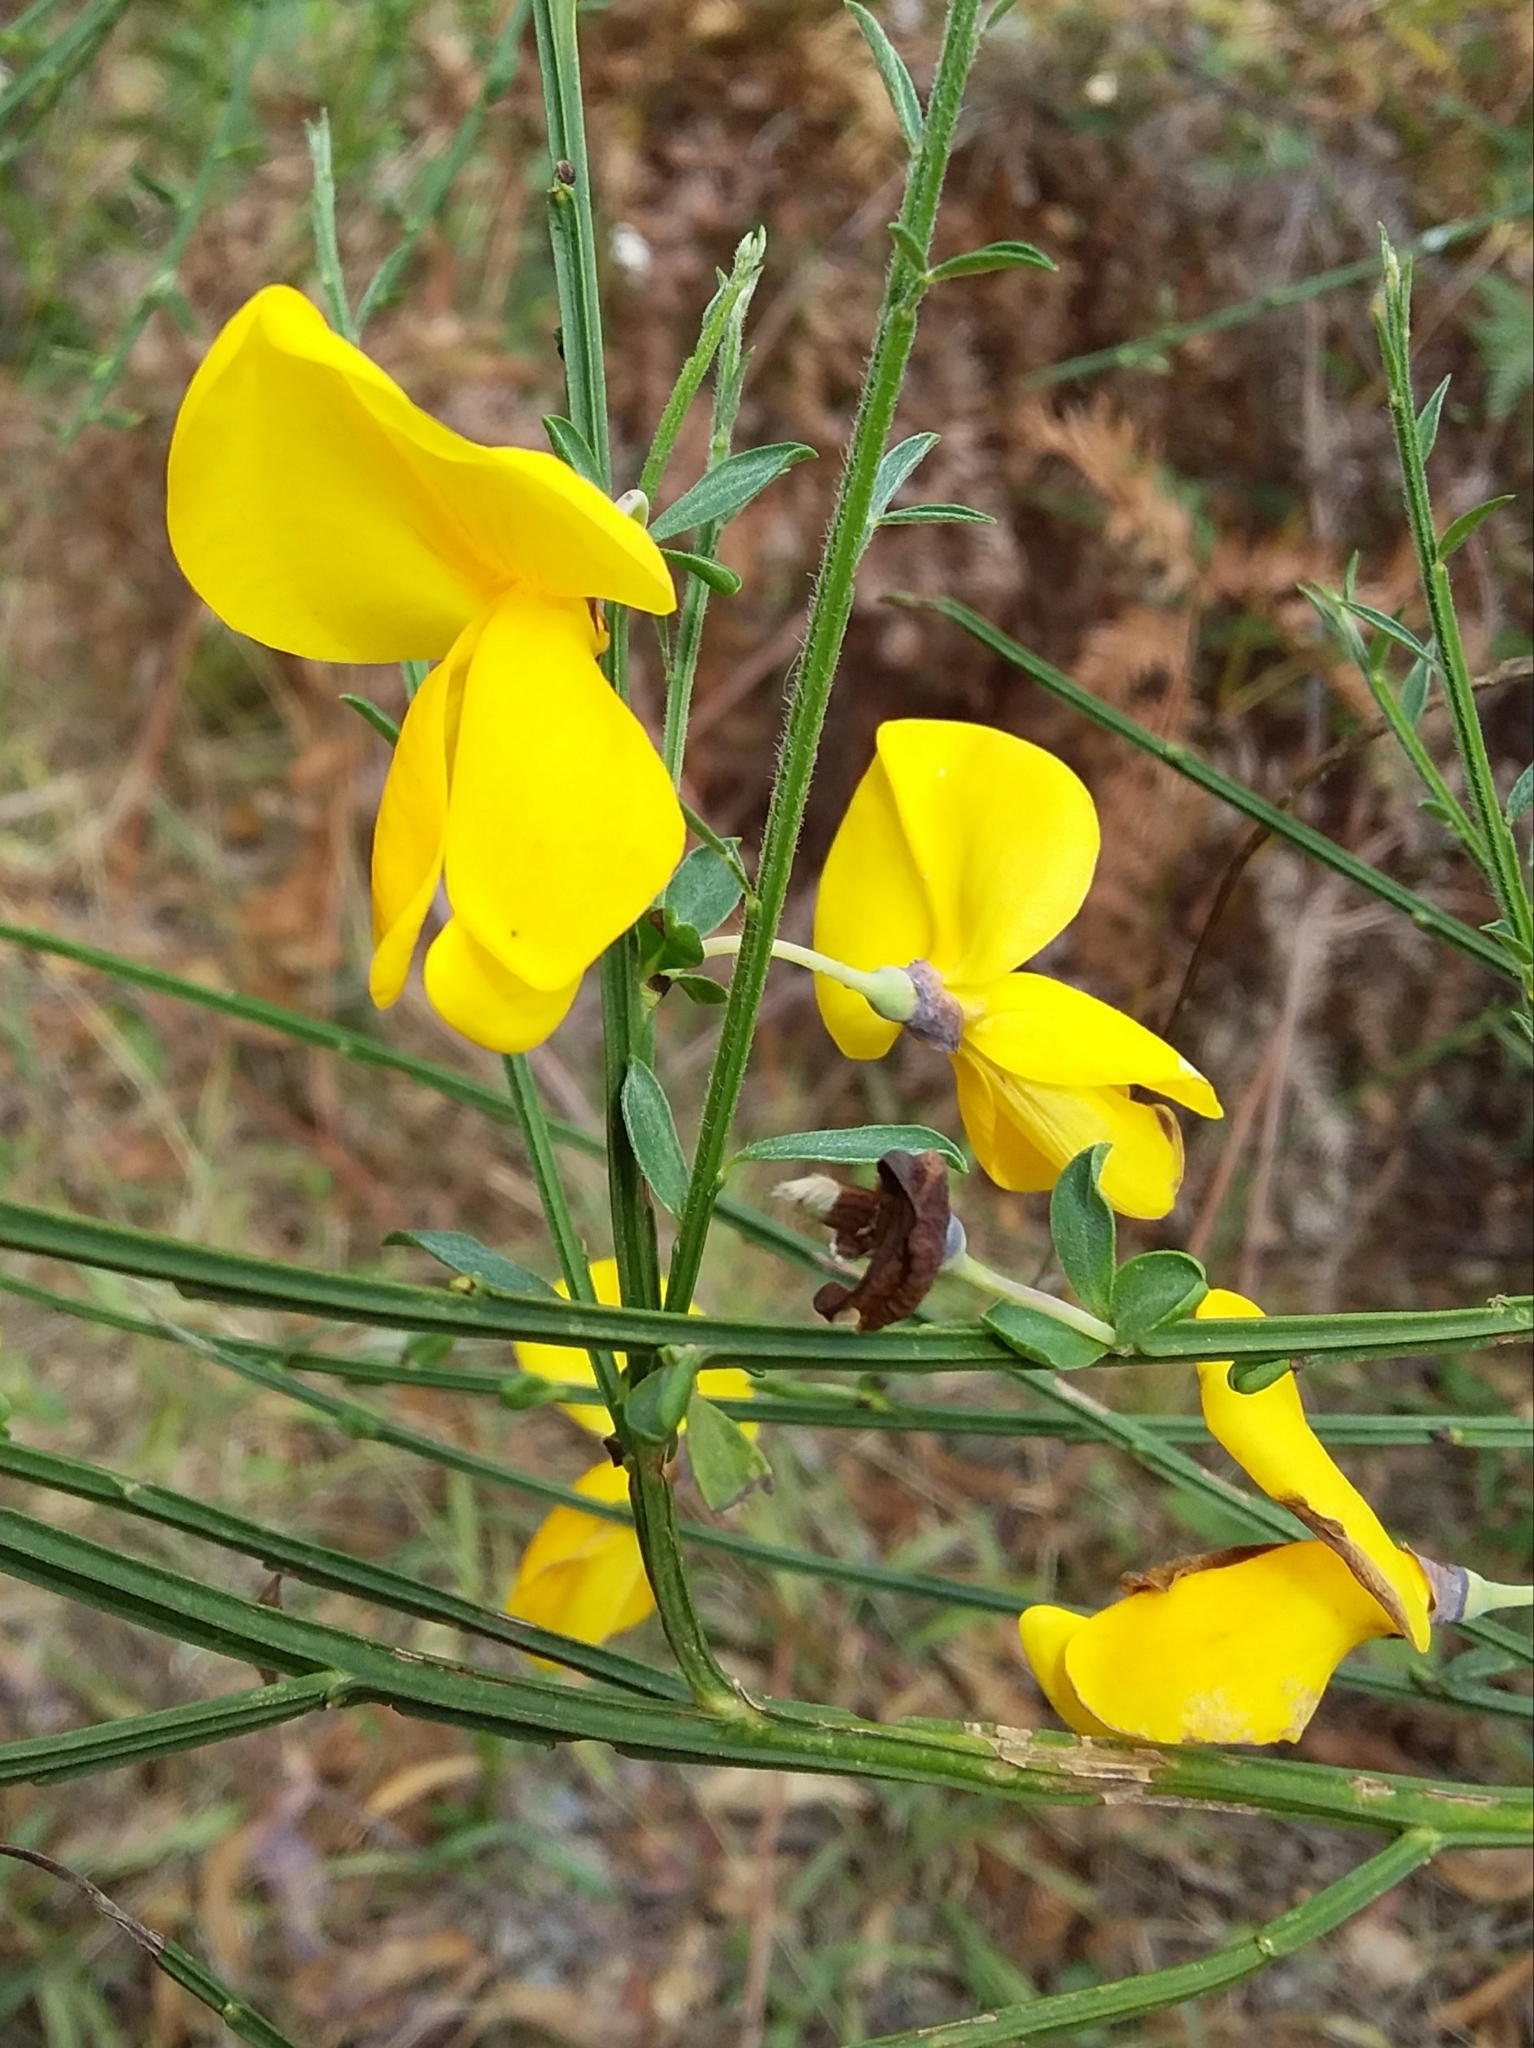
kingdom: Plantae
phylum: Tracheophyta
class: Magnoliopsida
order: Fabales
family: Fabaceae
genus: Cytisus
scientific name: Cytisus scoparius
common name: Scotch broom
